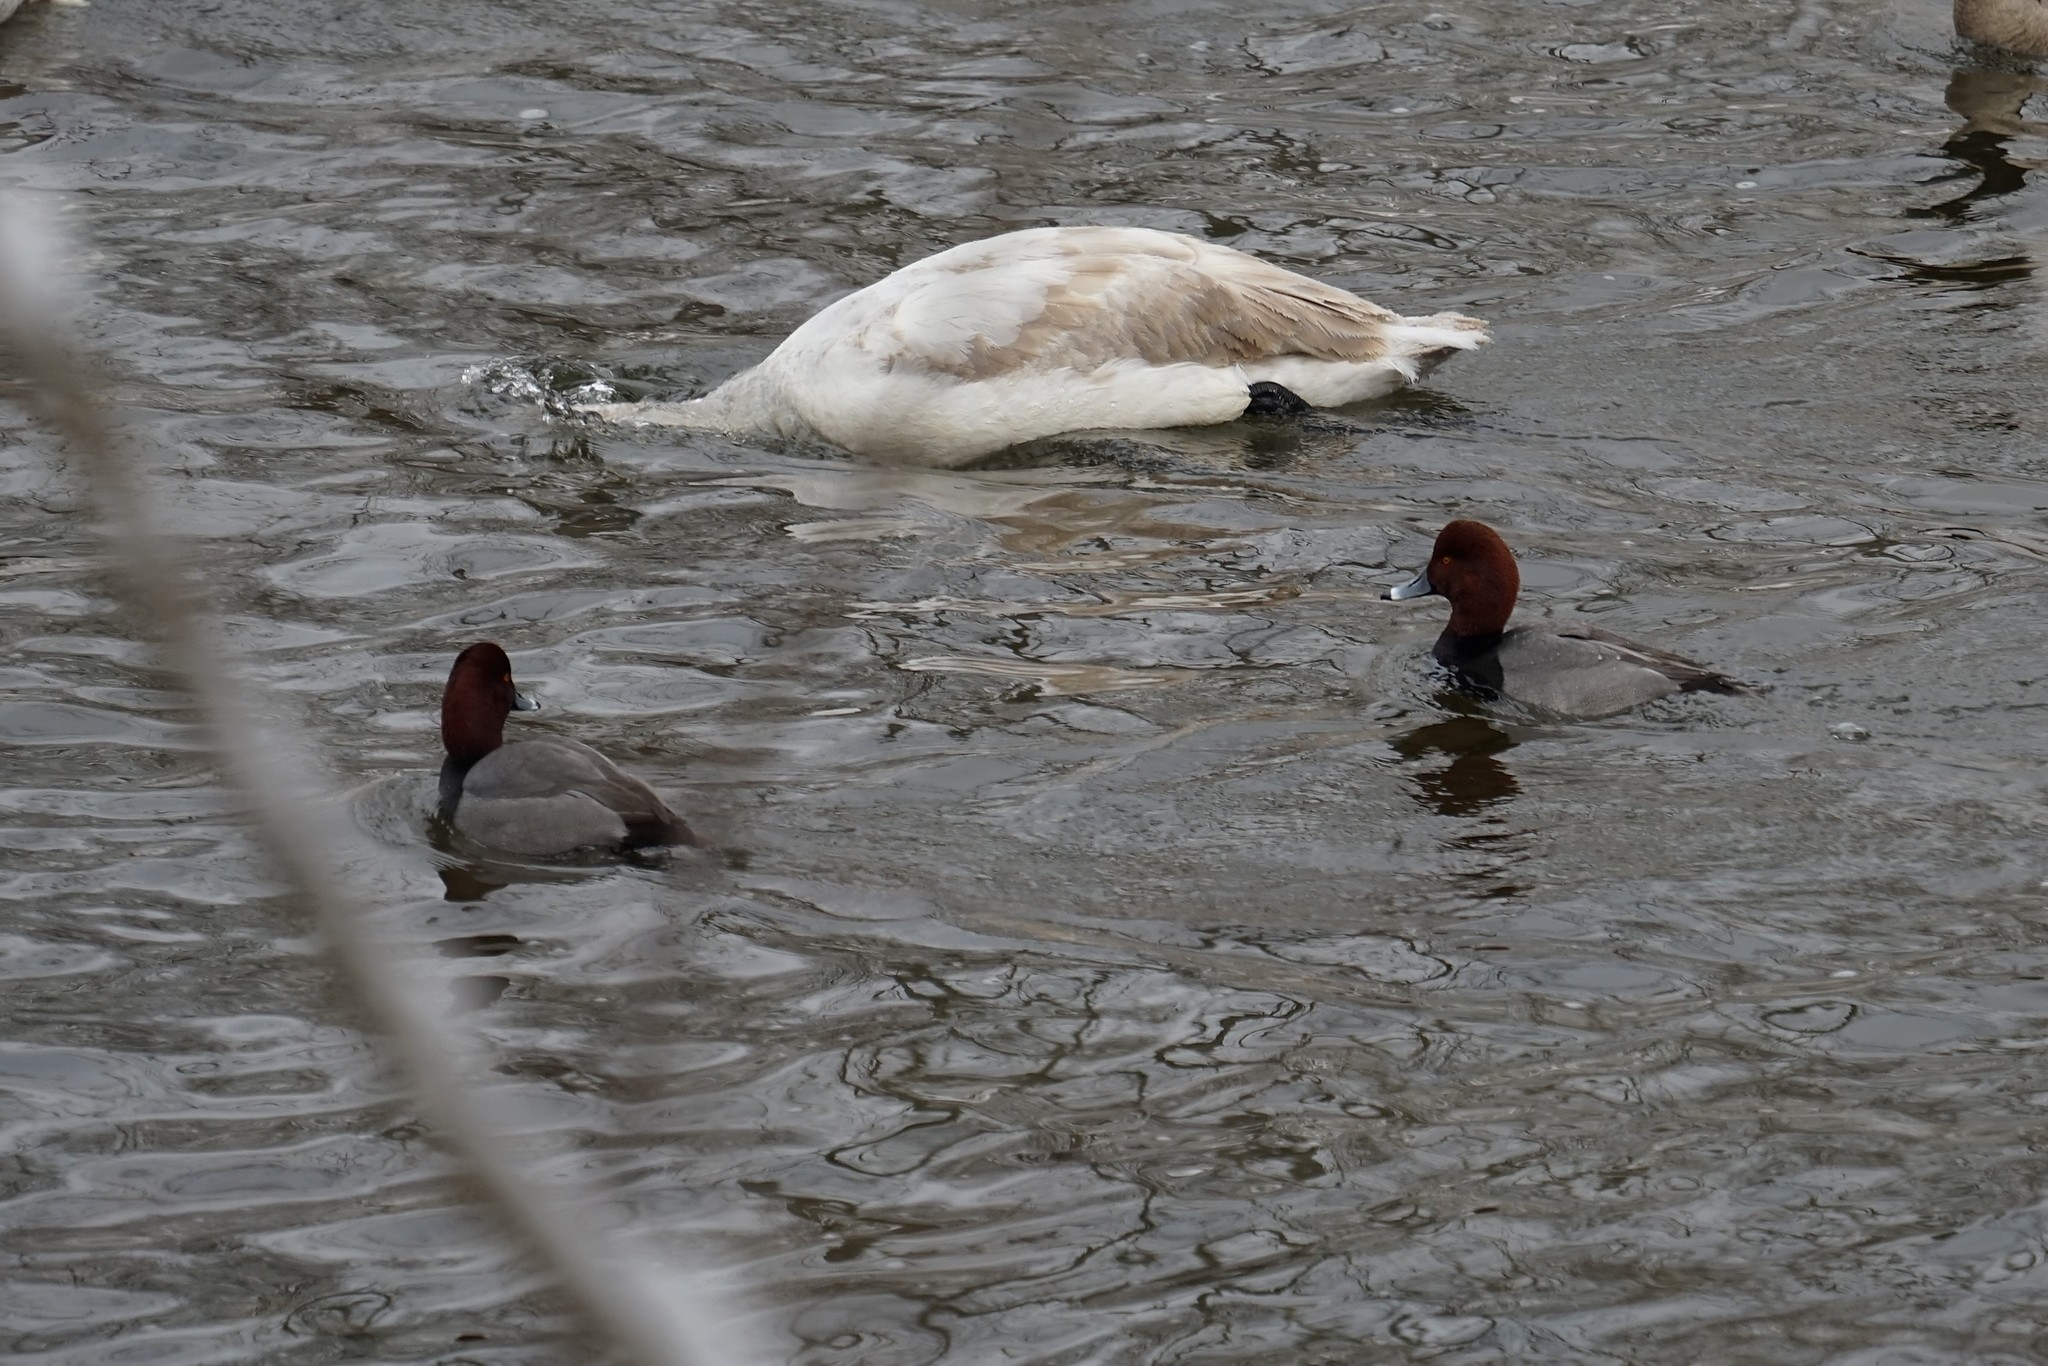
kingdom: Animalia
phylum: Chordata
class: Aves
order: Anseriformes
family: Anatidae
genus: Aythya
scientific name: Aythya americana
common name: Redhead
